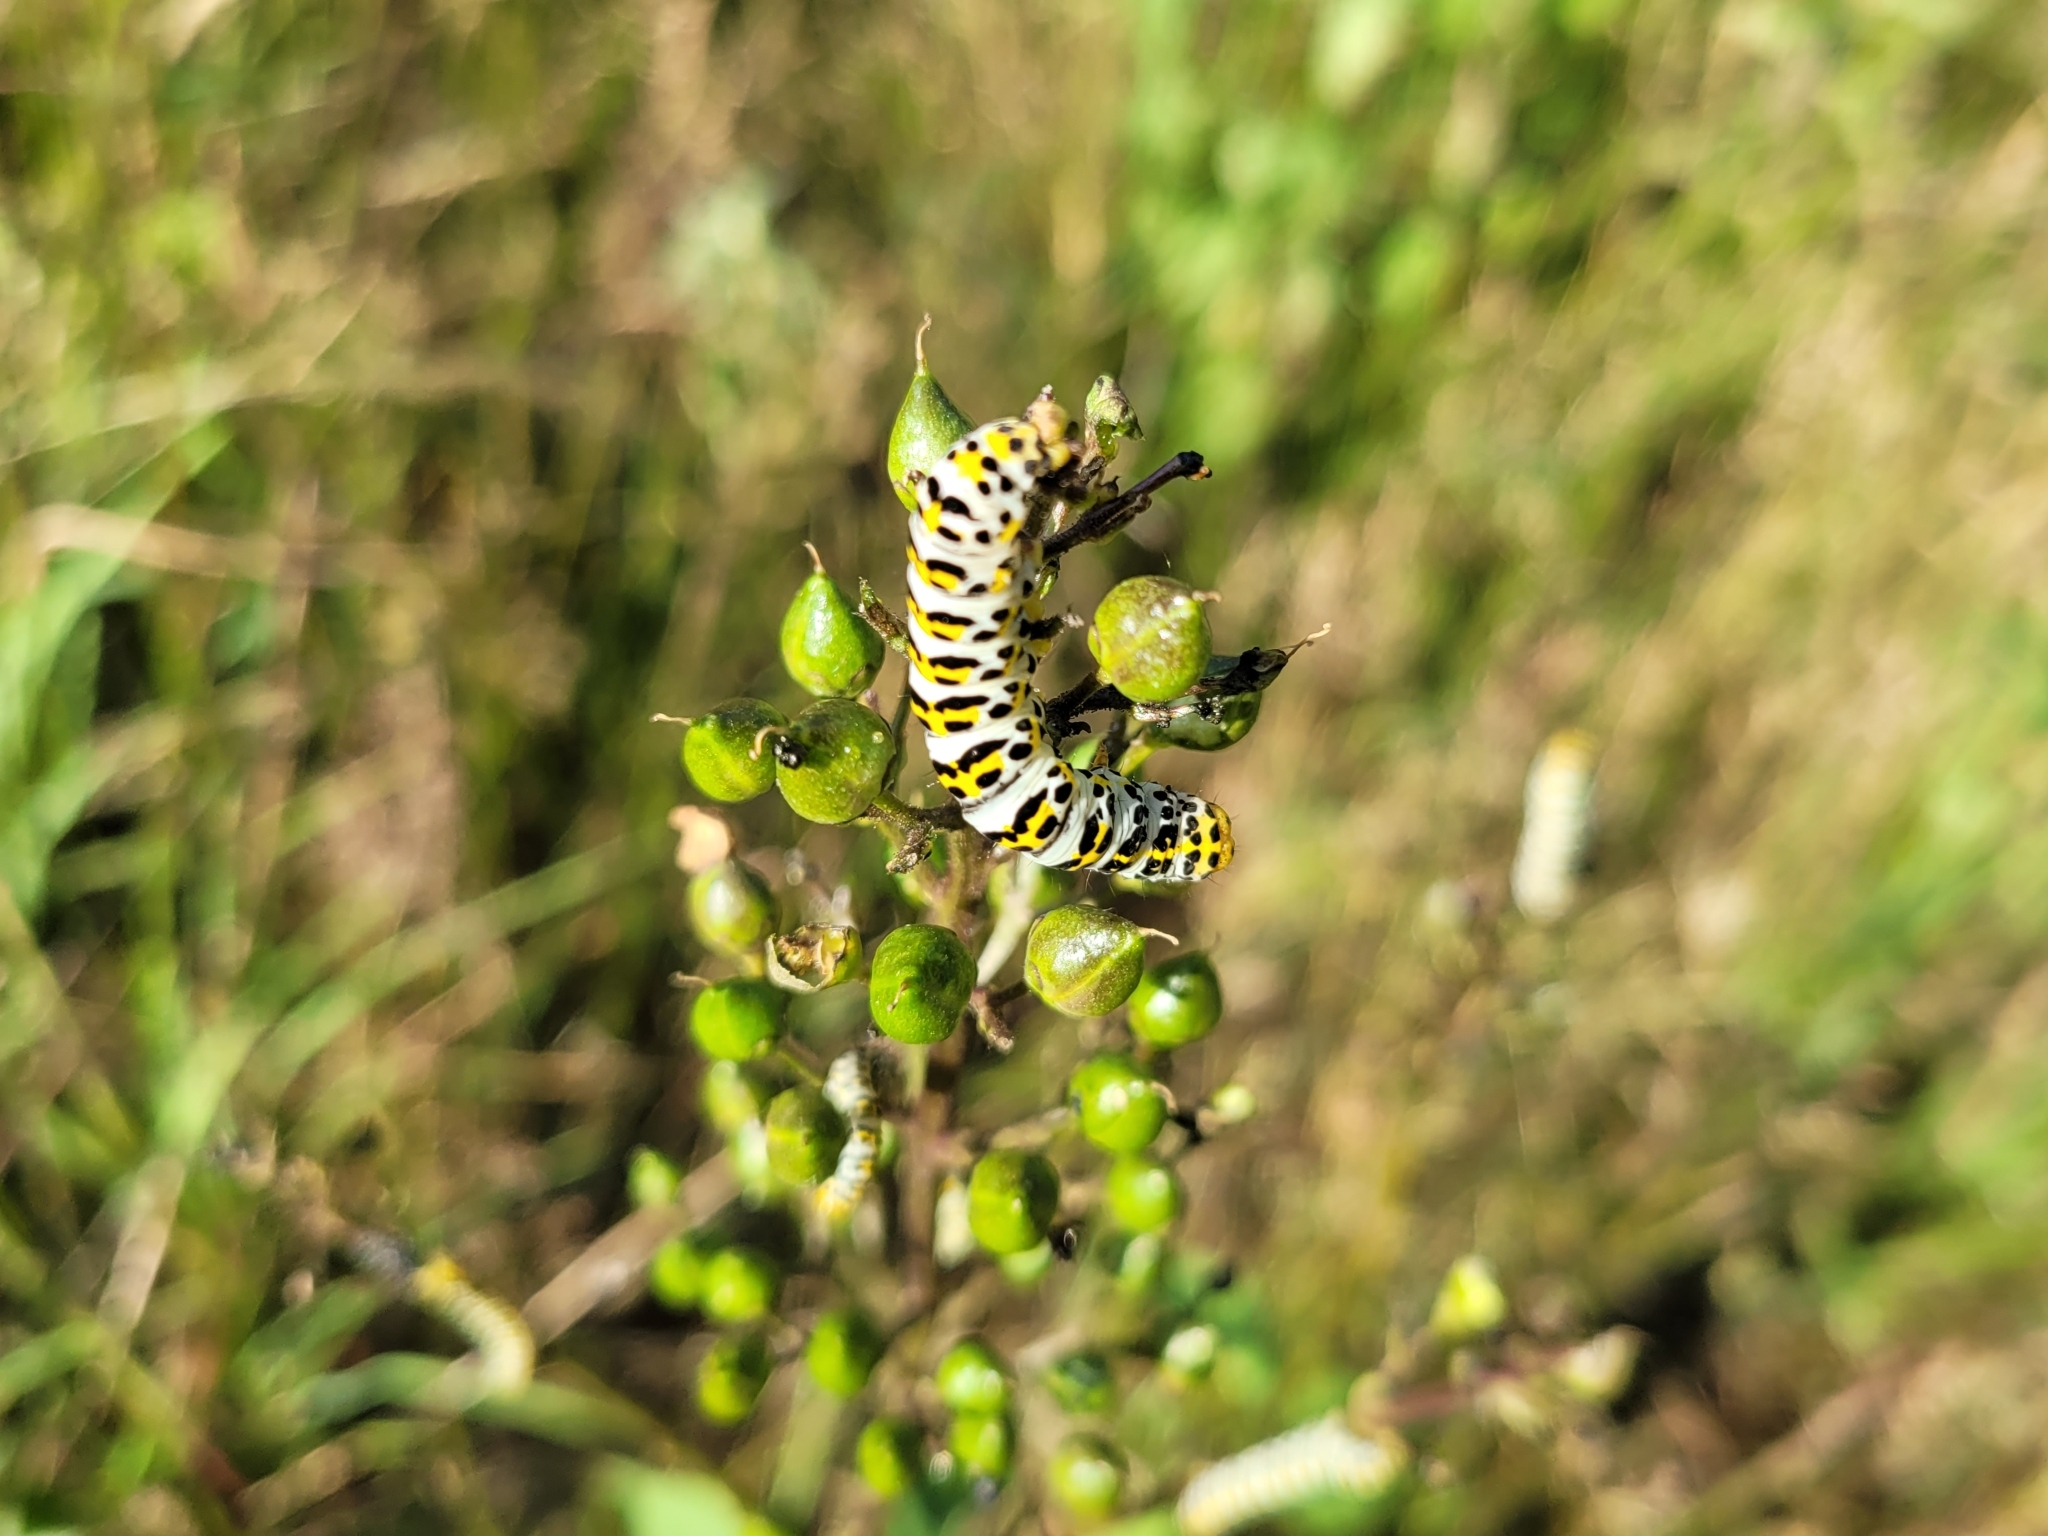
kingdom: Animalia
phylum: Arthropoda
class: Insecta
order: Lepidoptera
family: Noctuidae
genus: Shargacucullia
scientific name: Shargacucullia scrophulariae
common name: Water betony
